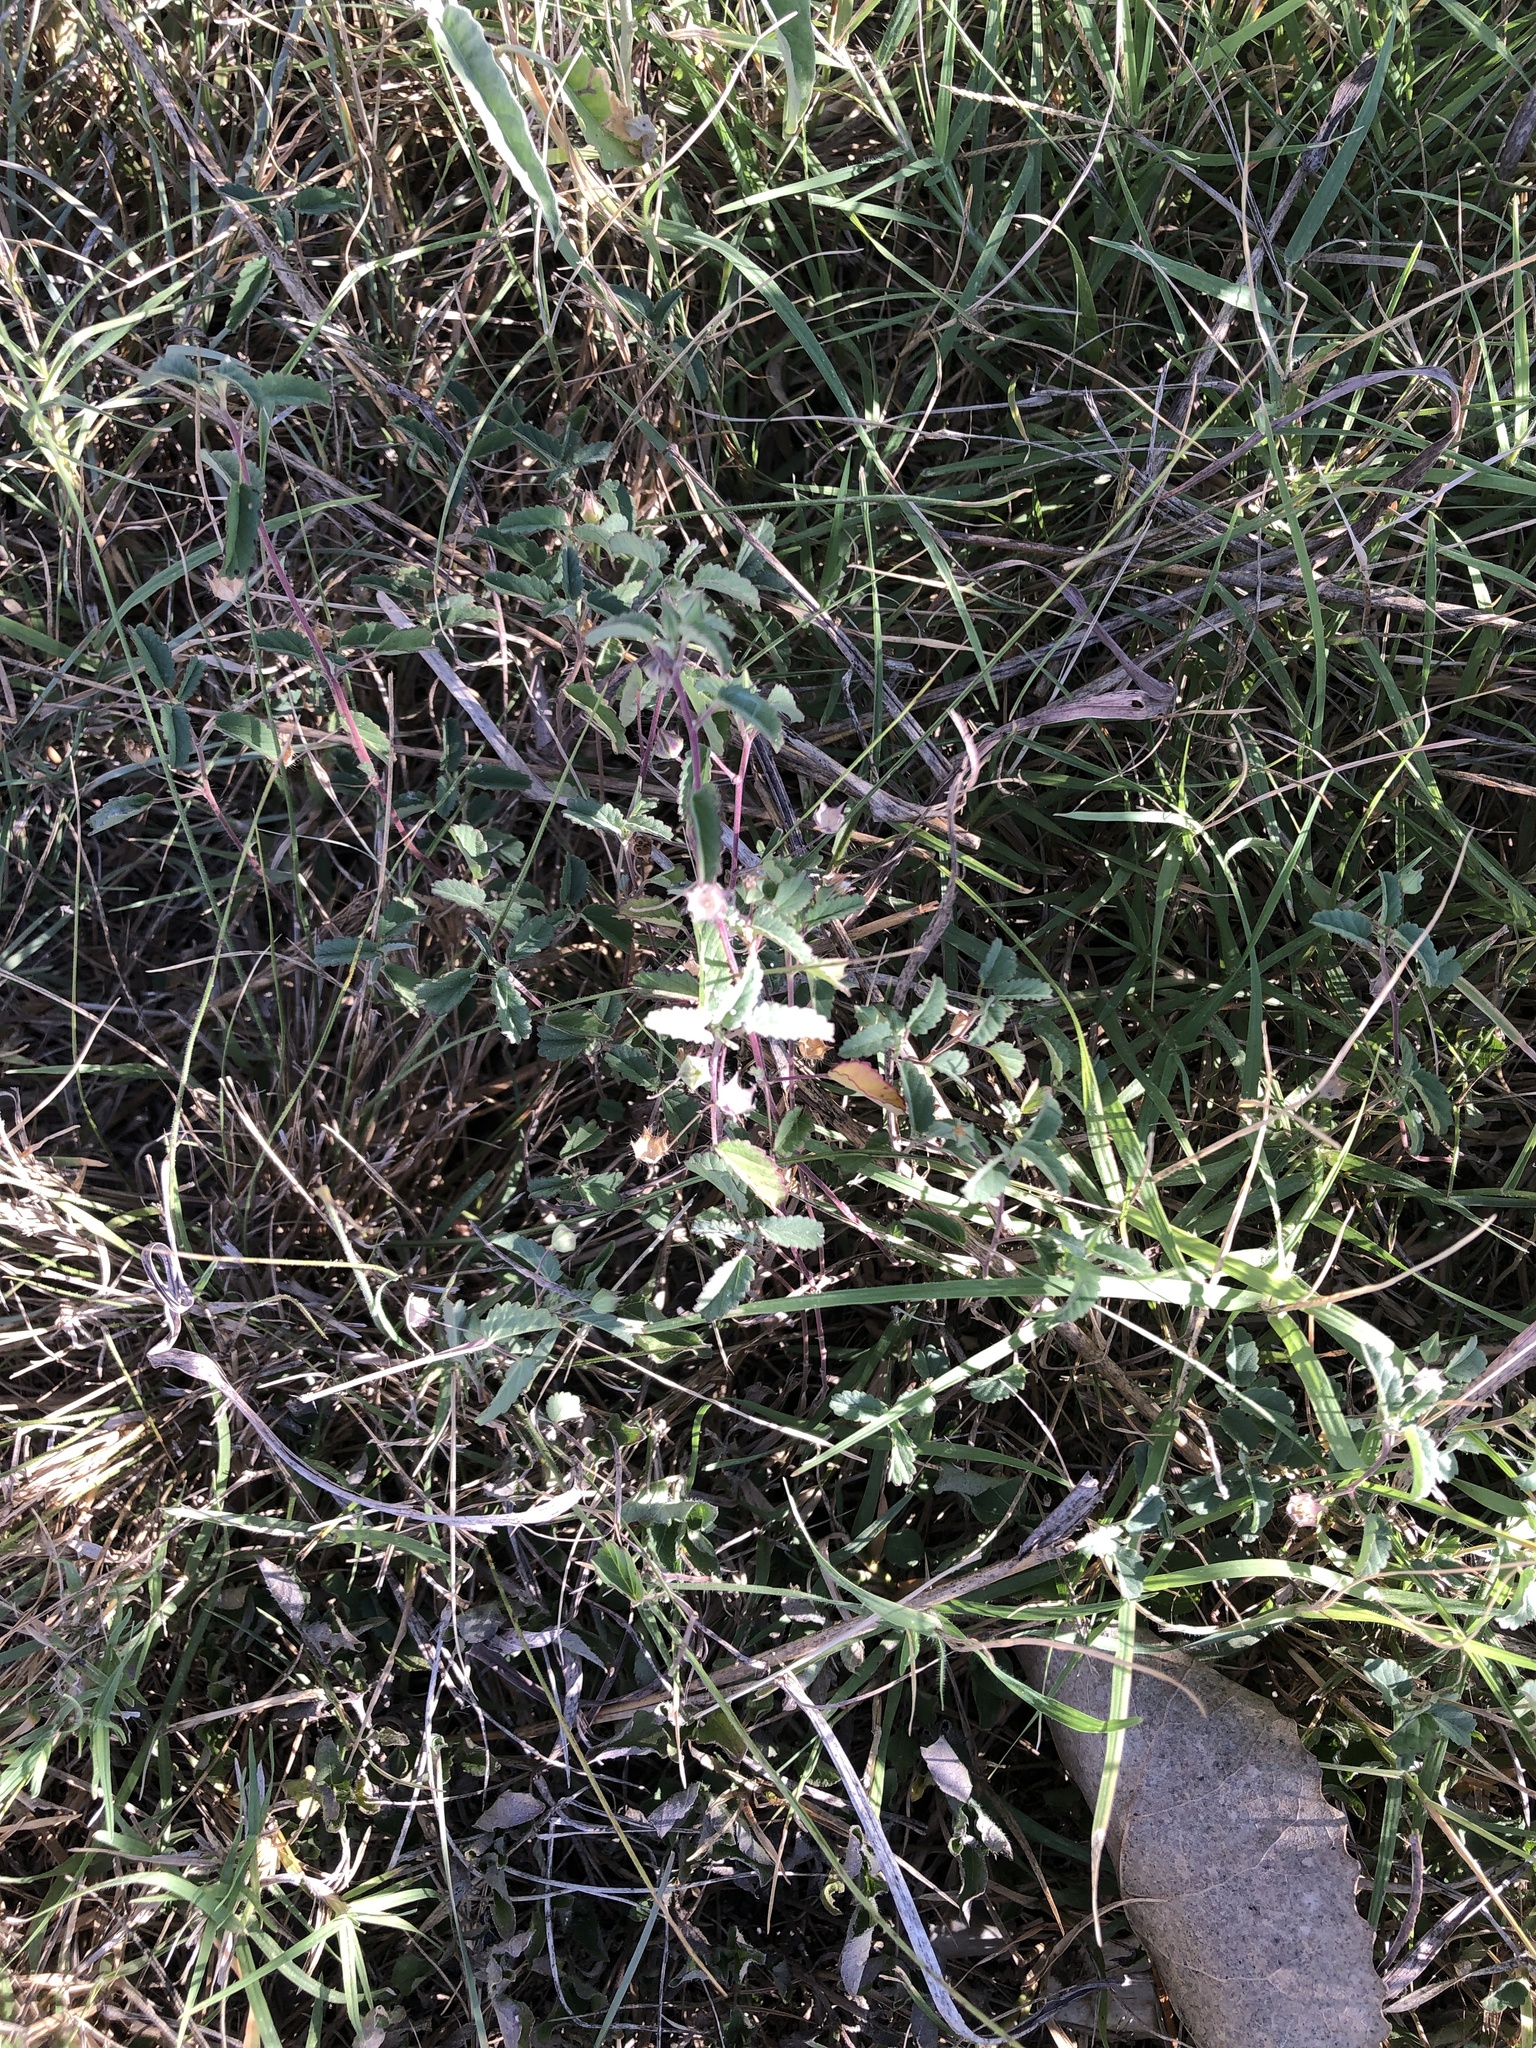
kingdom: Plantae
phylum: Tracheophyta
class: Magnoliopsida
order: Malvales
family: Malvaceae
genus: Sida
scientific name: Sida abutilifolia
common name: Spreading fanpetals
